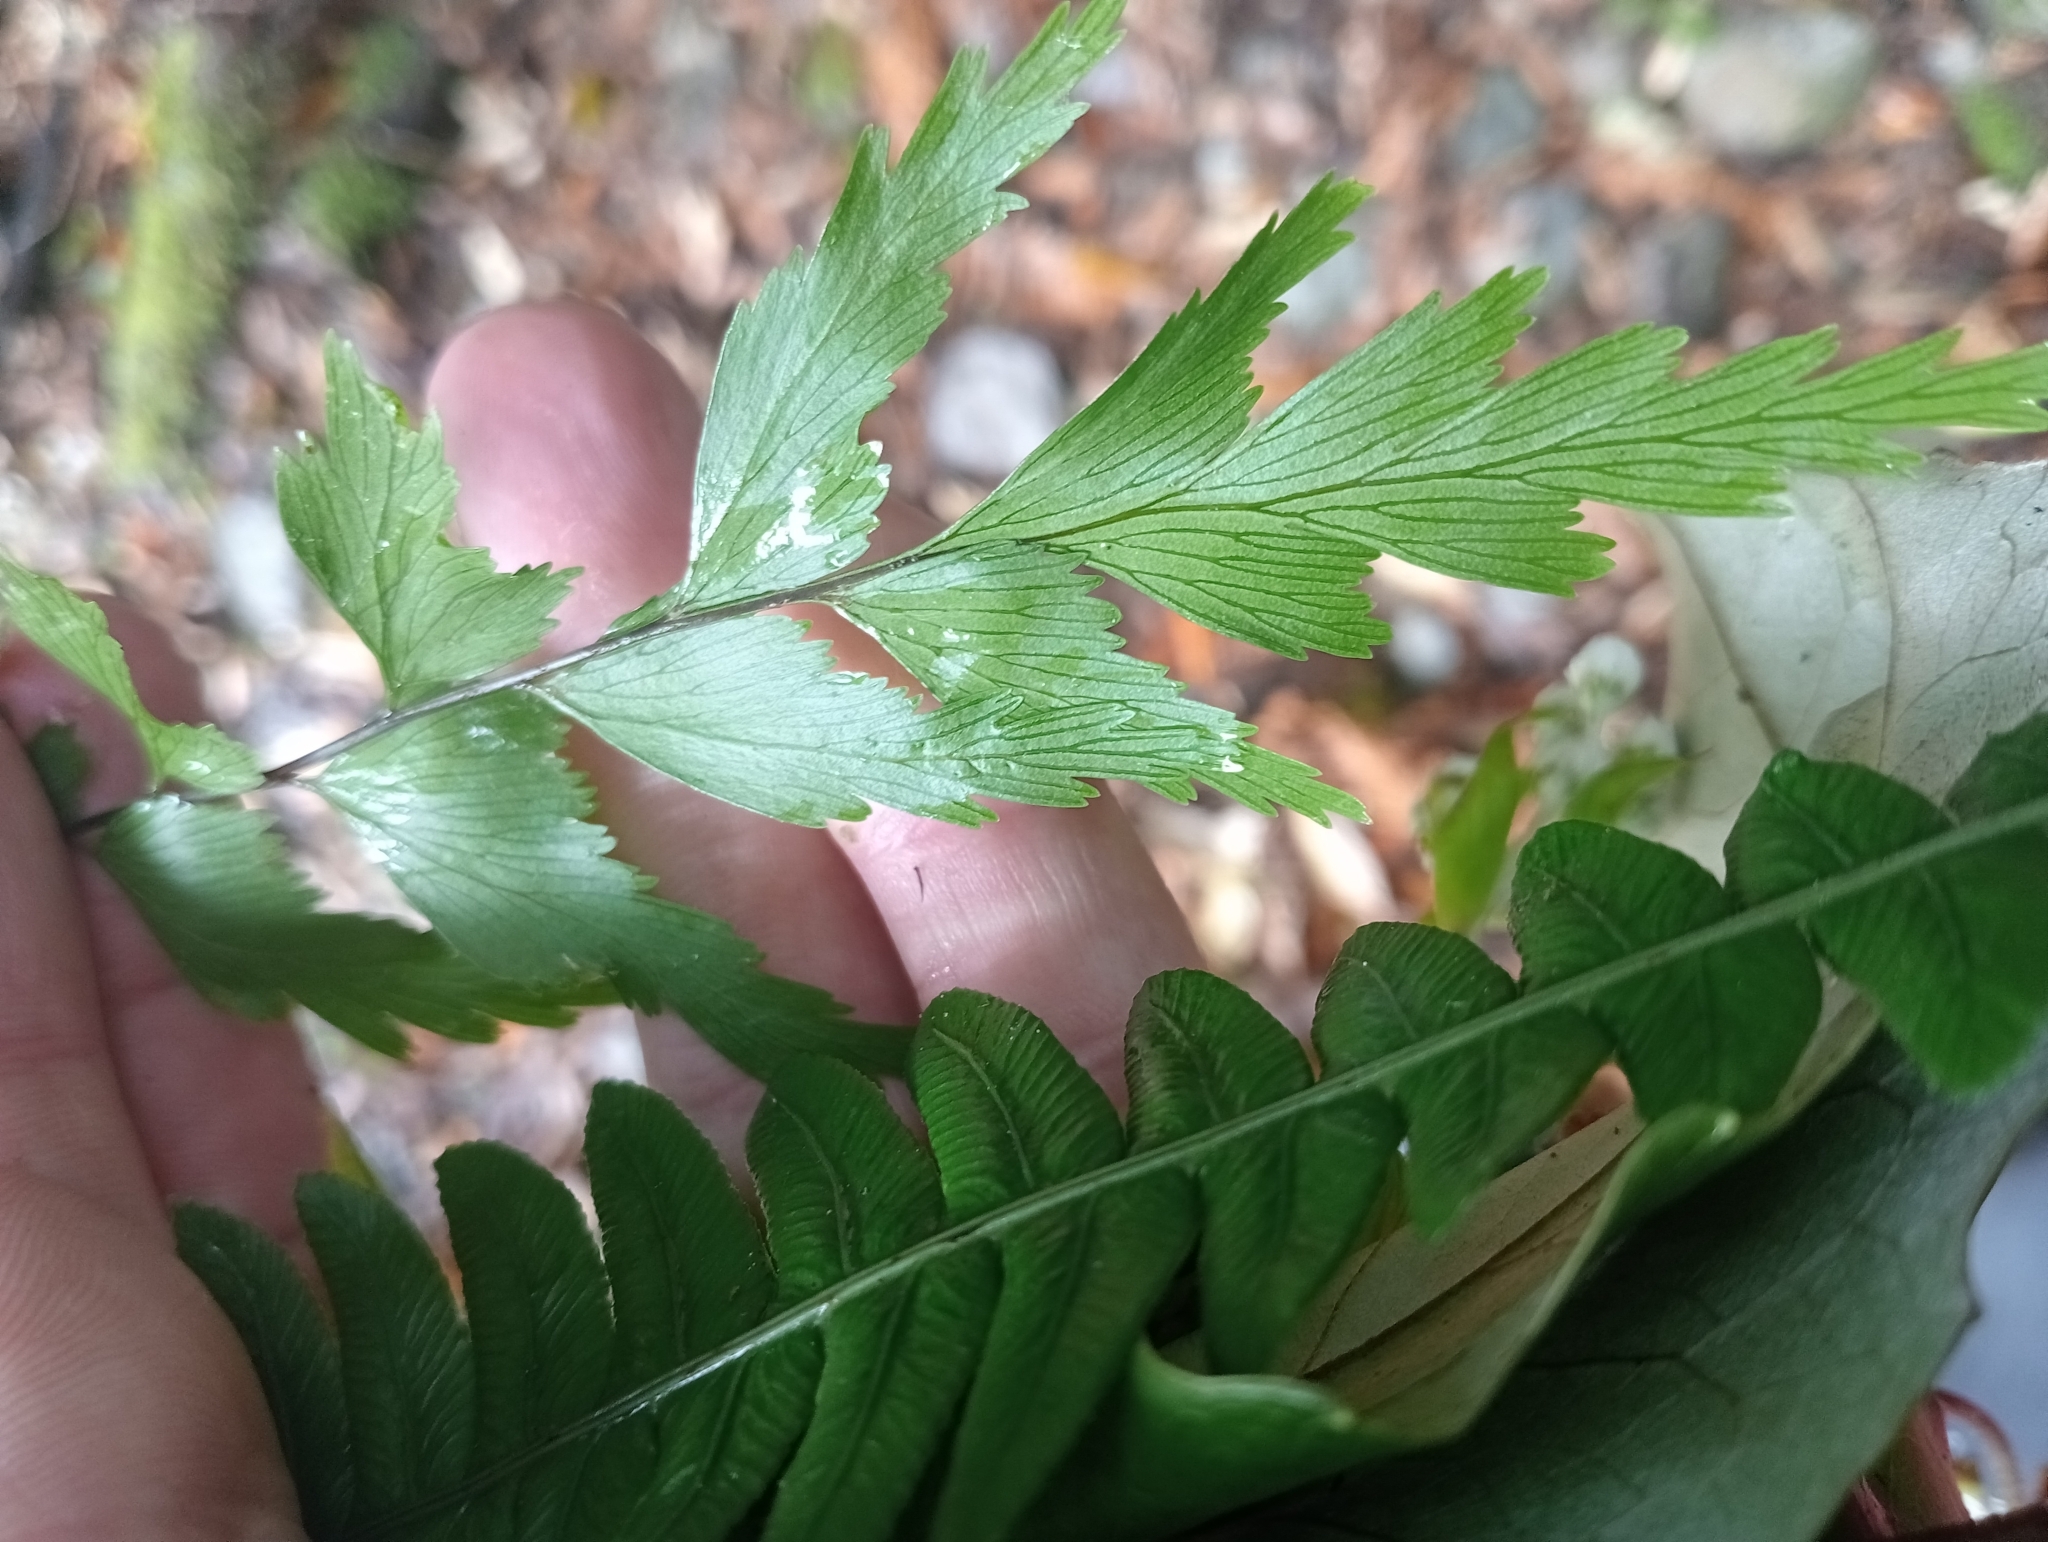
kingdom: Plantae
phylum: Tracheophyta
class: Polypodiopsida
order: Polypodiales
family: Aspleniaceae
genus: Asplenium
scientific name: Asplenium polyodon
